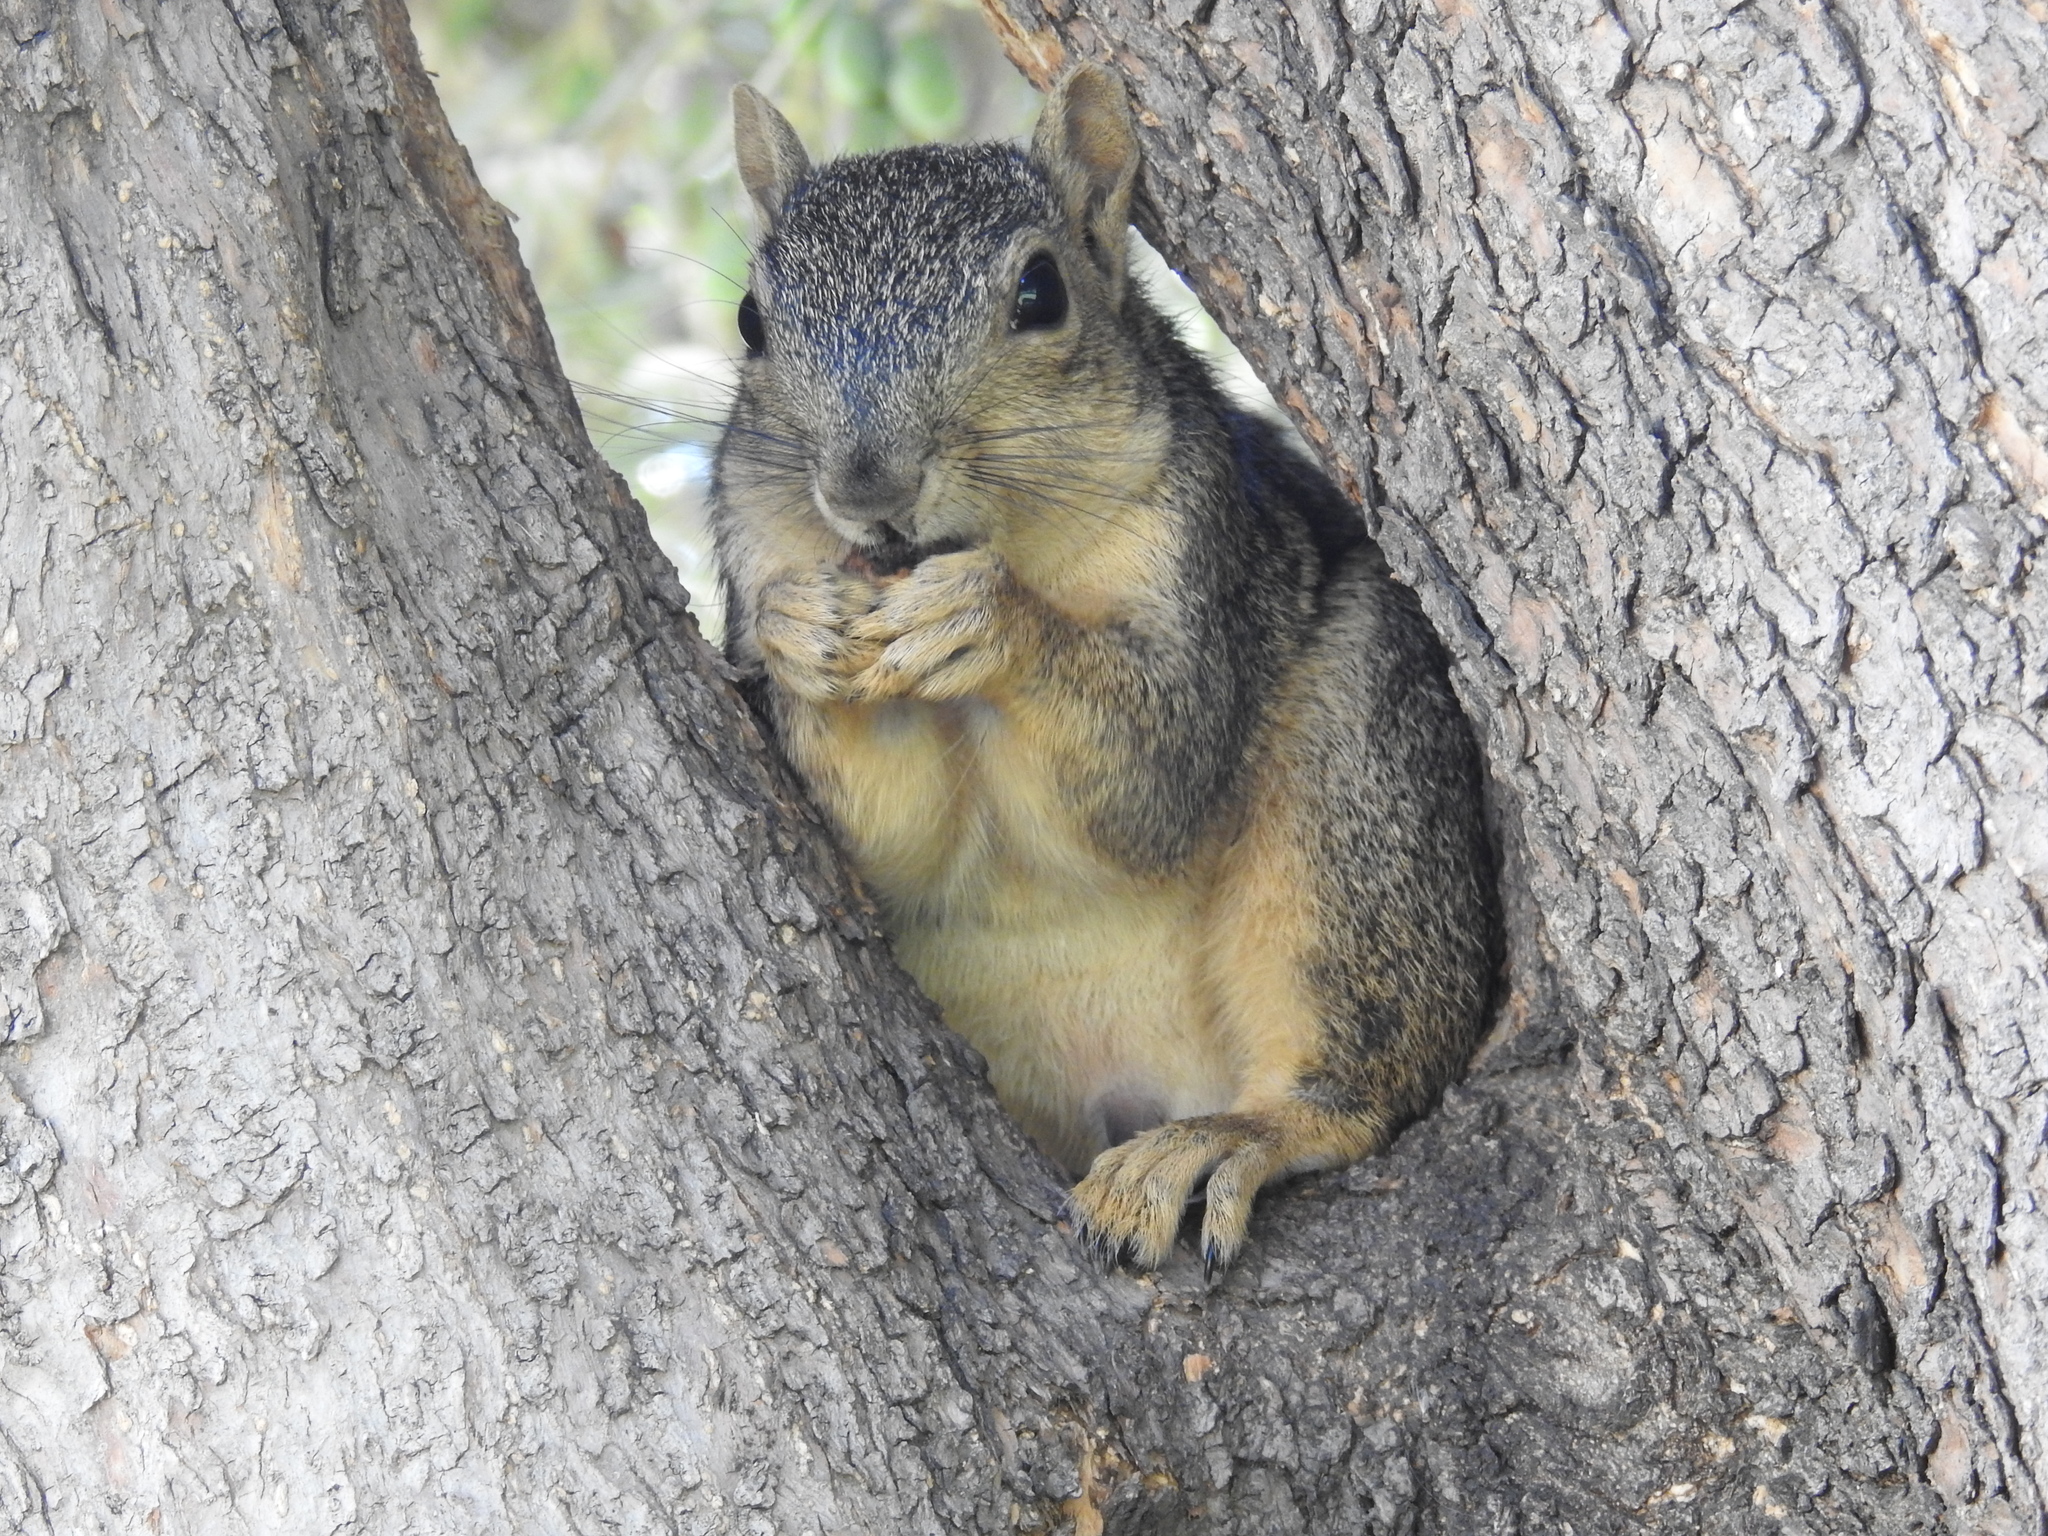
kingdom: Animalia
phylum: Chordata
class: Mammalia
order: Rodentia
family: Sciuridae
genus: Sciurus
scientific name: Sciurus niger
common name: Fox squirrel
